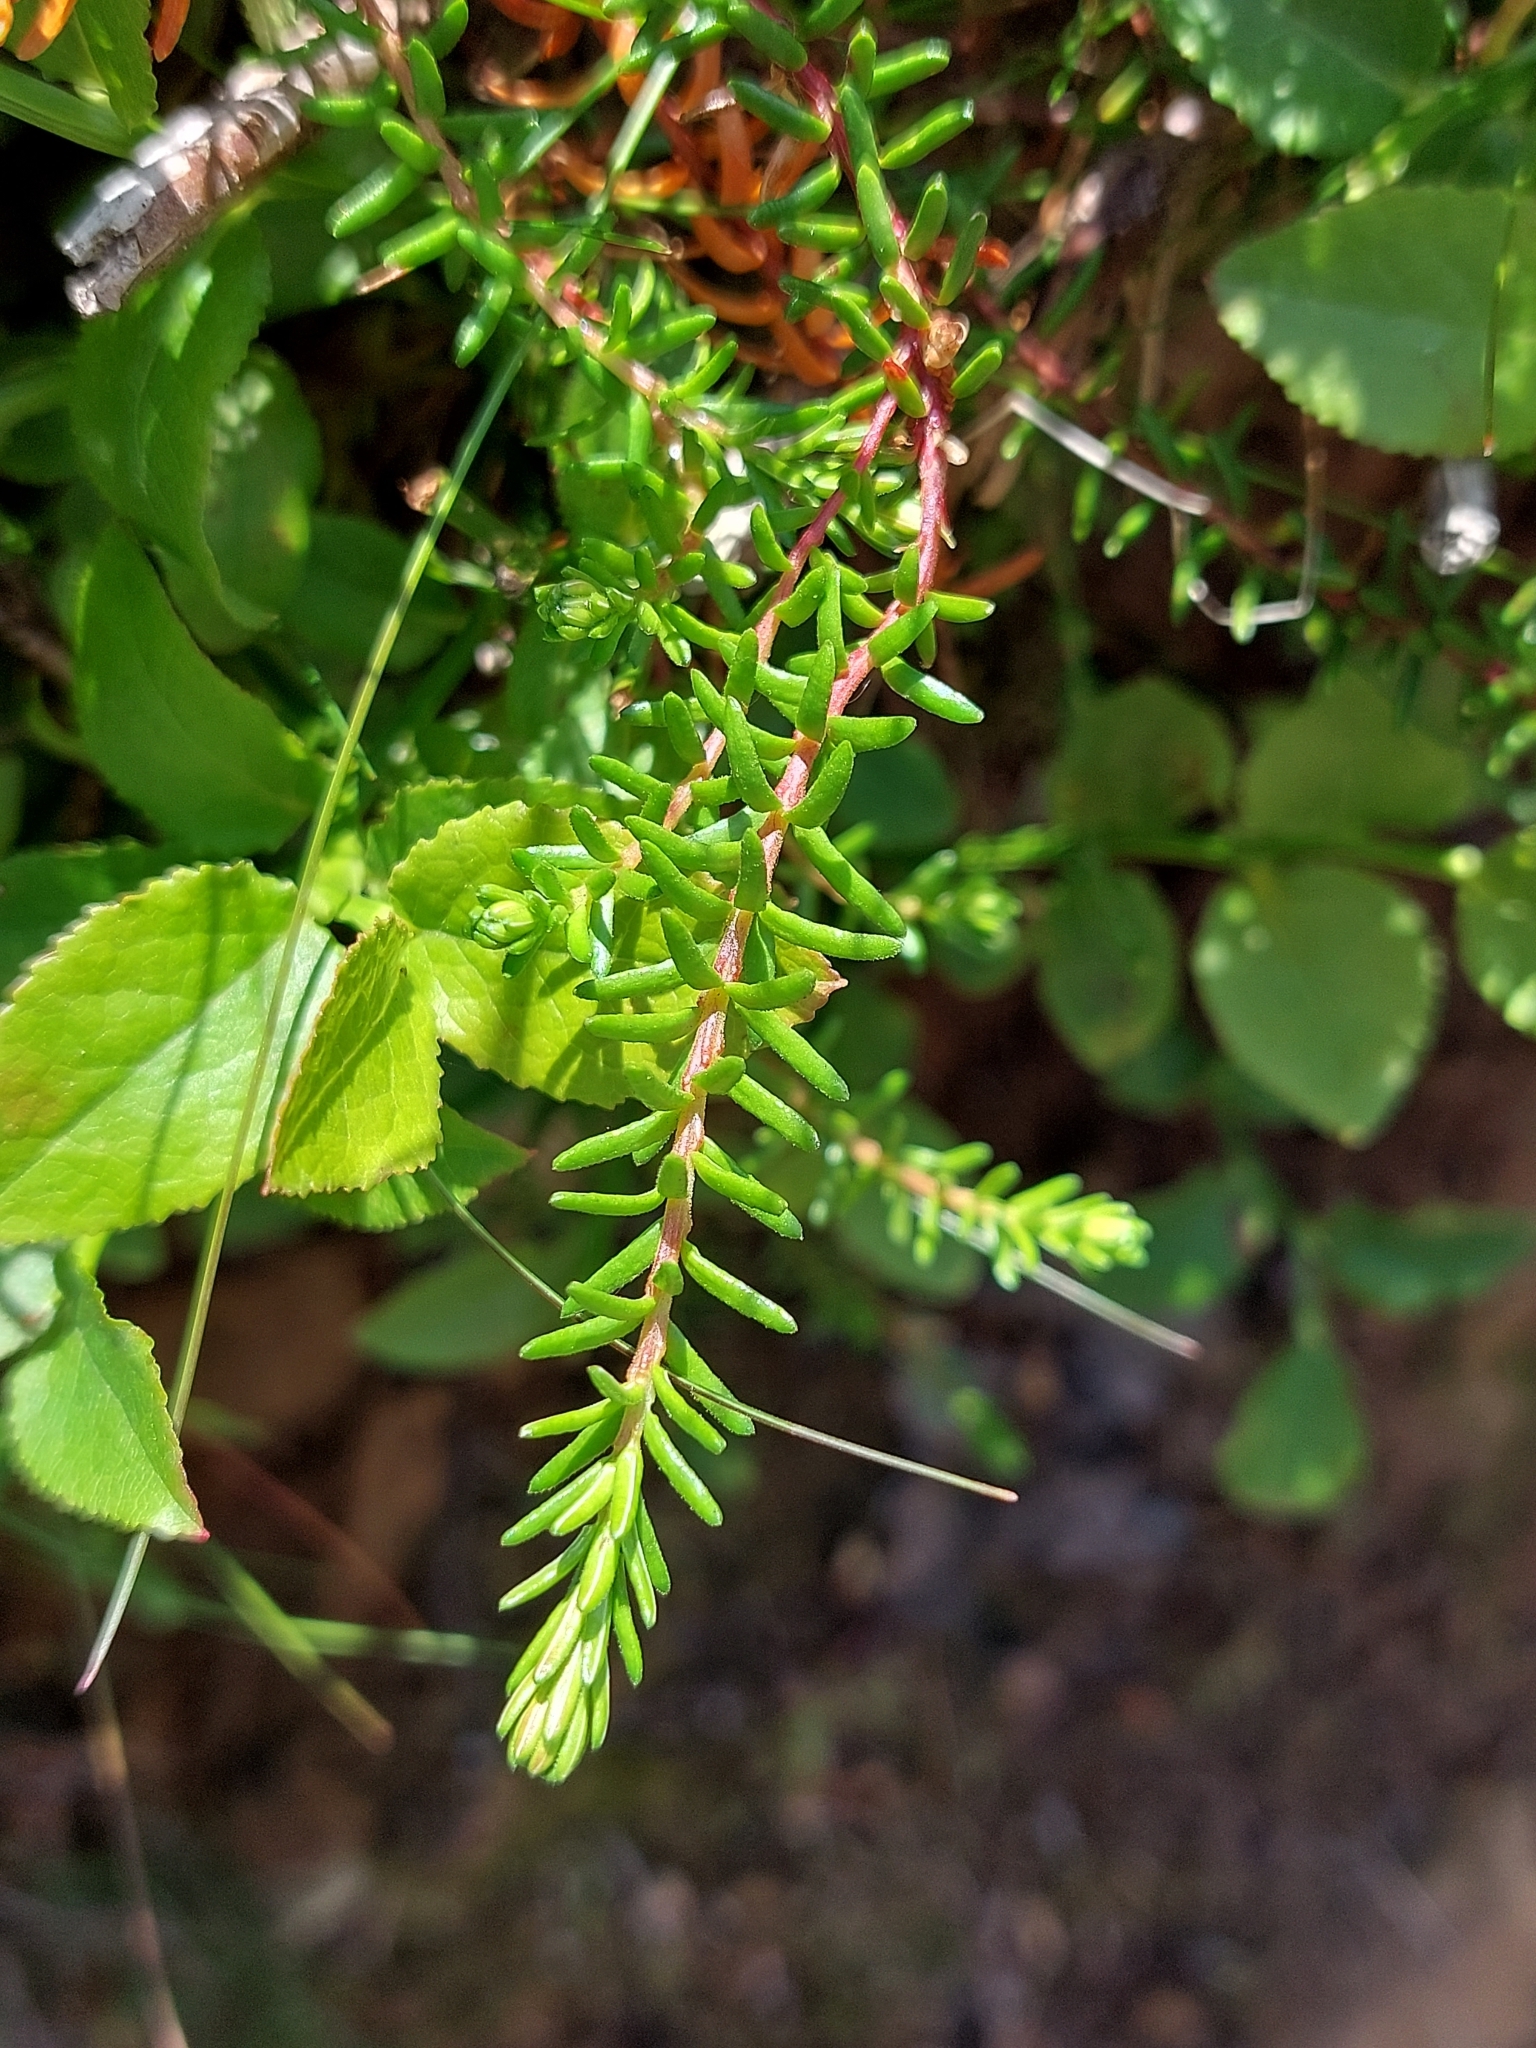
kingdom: Plantae
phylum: Tracheophyta
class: Magnoliopsida
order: Ericales
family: Ericaceae
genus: Erica
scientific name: Erica tetralix
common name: Cross-leaved heath
